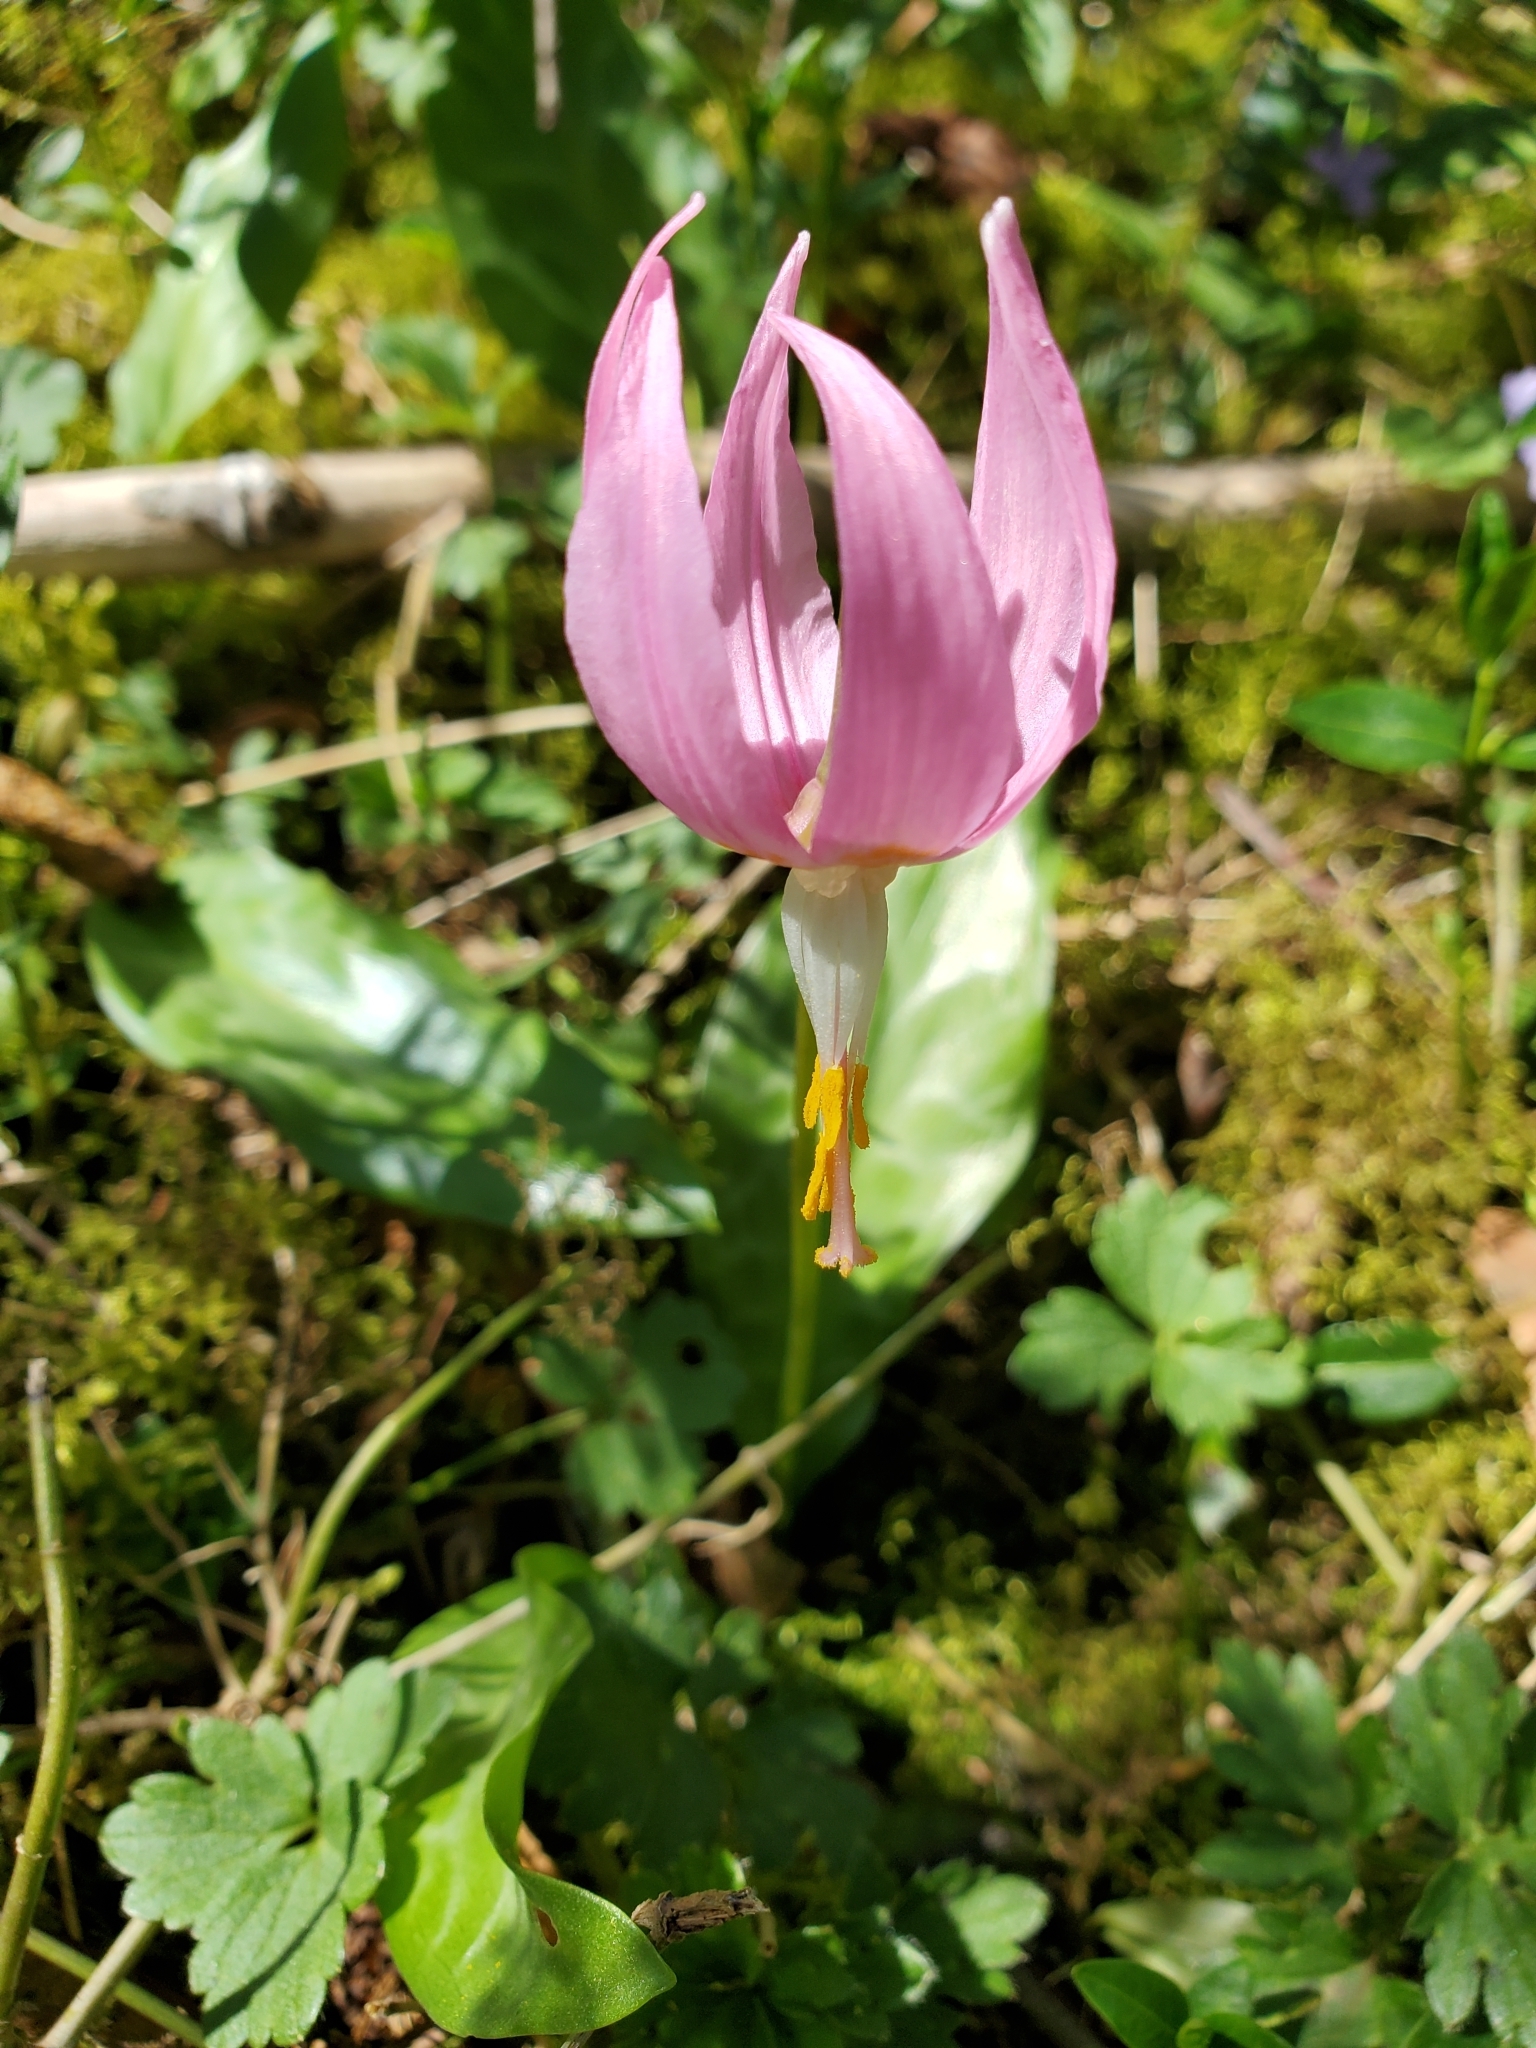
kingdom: Plantae
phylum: Tracheophyta
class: Liliopsida
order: Liliales
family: Liliaceae
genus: Erythronium
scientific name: Erythronium revolutum
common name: Pink fawn-lily
